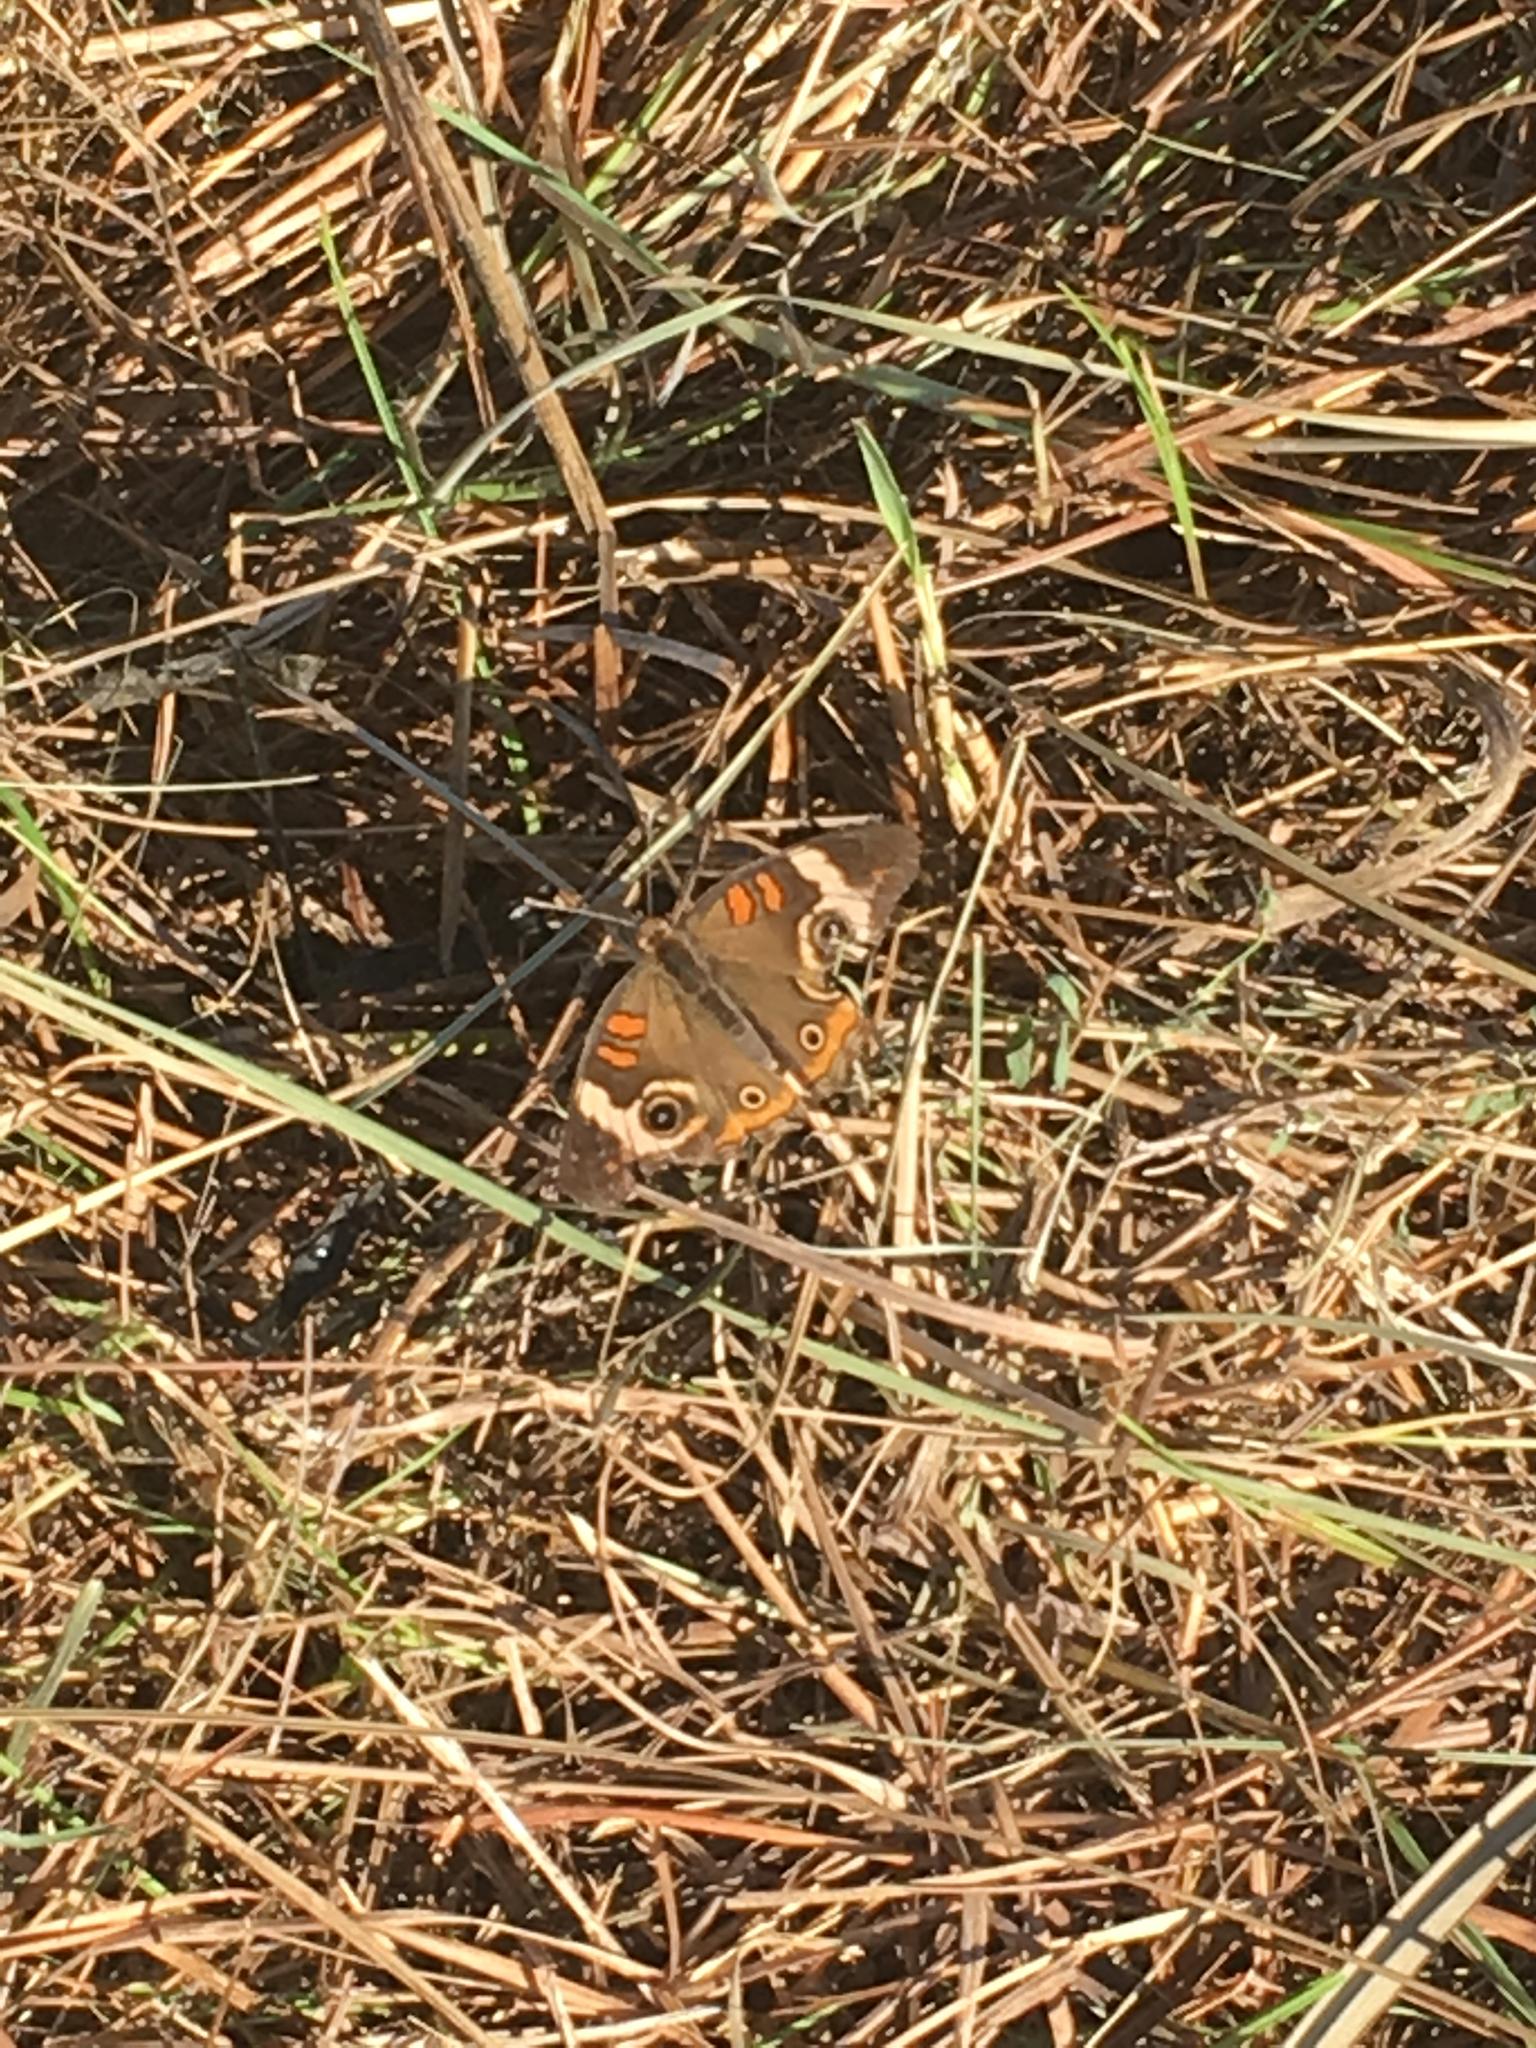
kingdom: Animalia
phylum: Arthropoda
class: Insecta
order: Lepidoptera
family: Nymphalidae
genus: Junonia
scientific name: Junonia coenia
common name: Common buckeye
